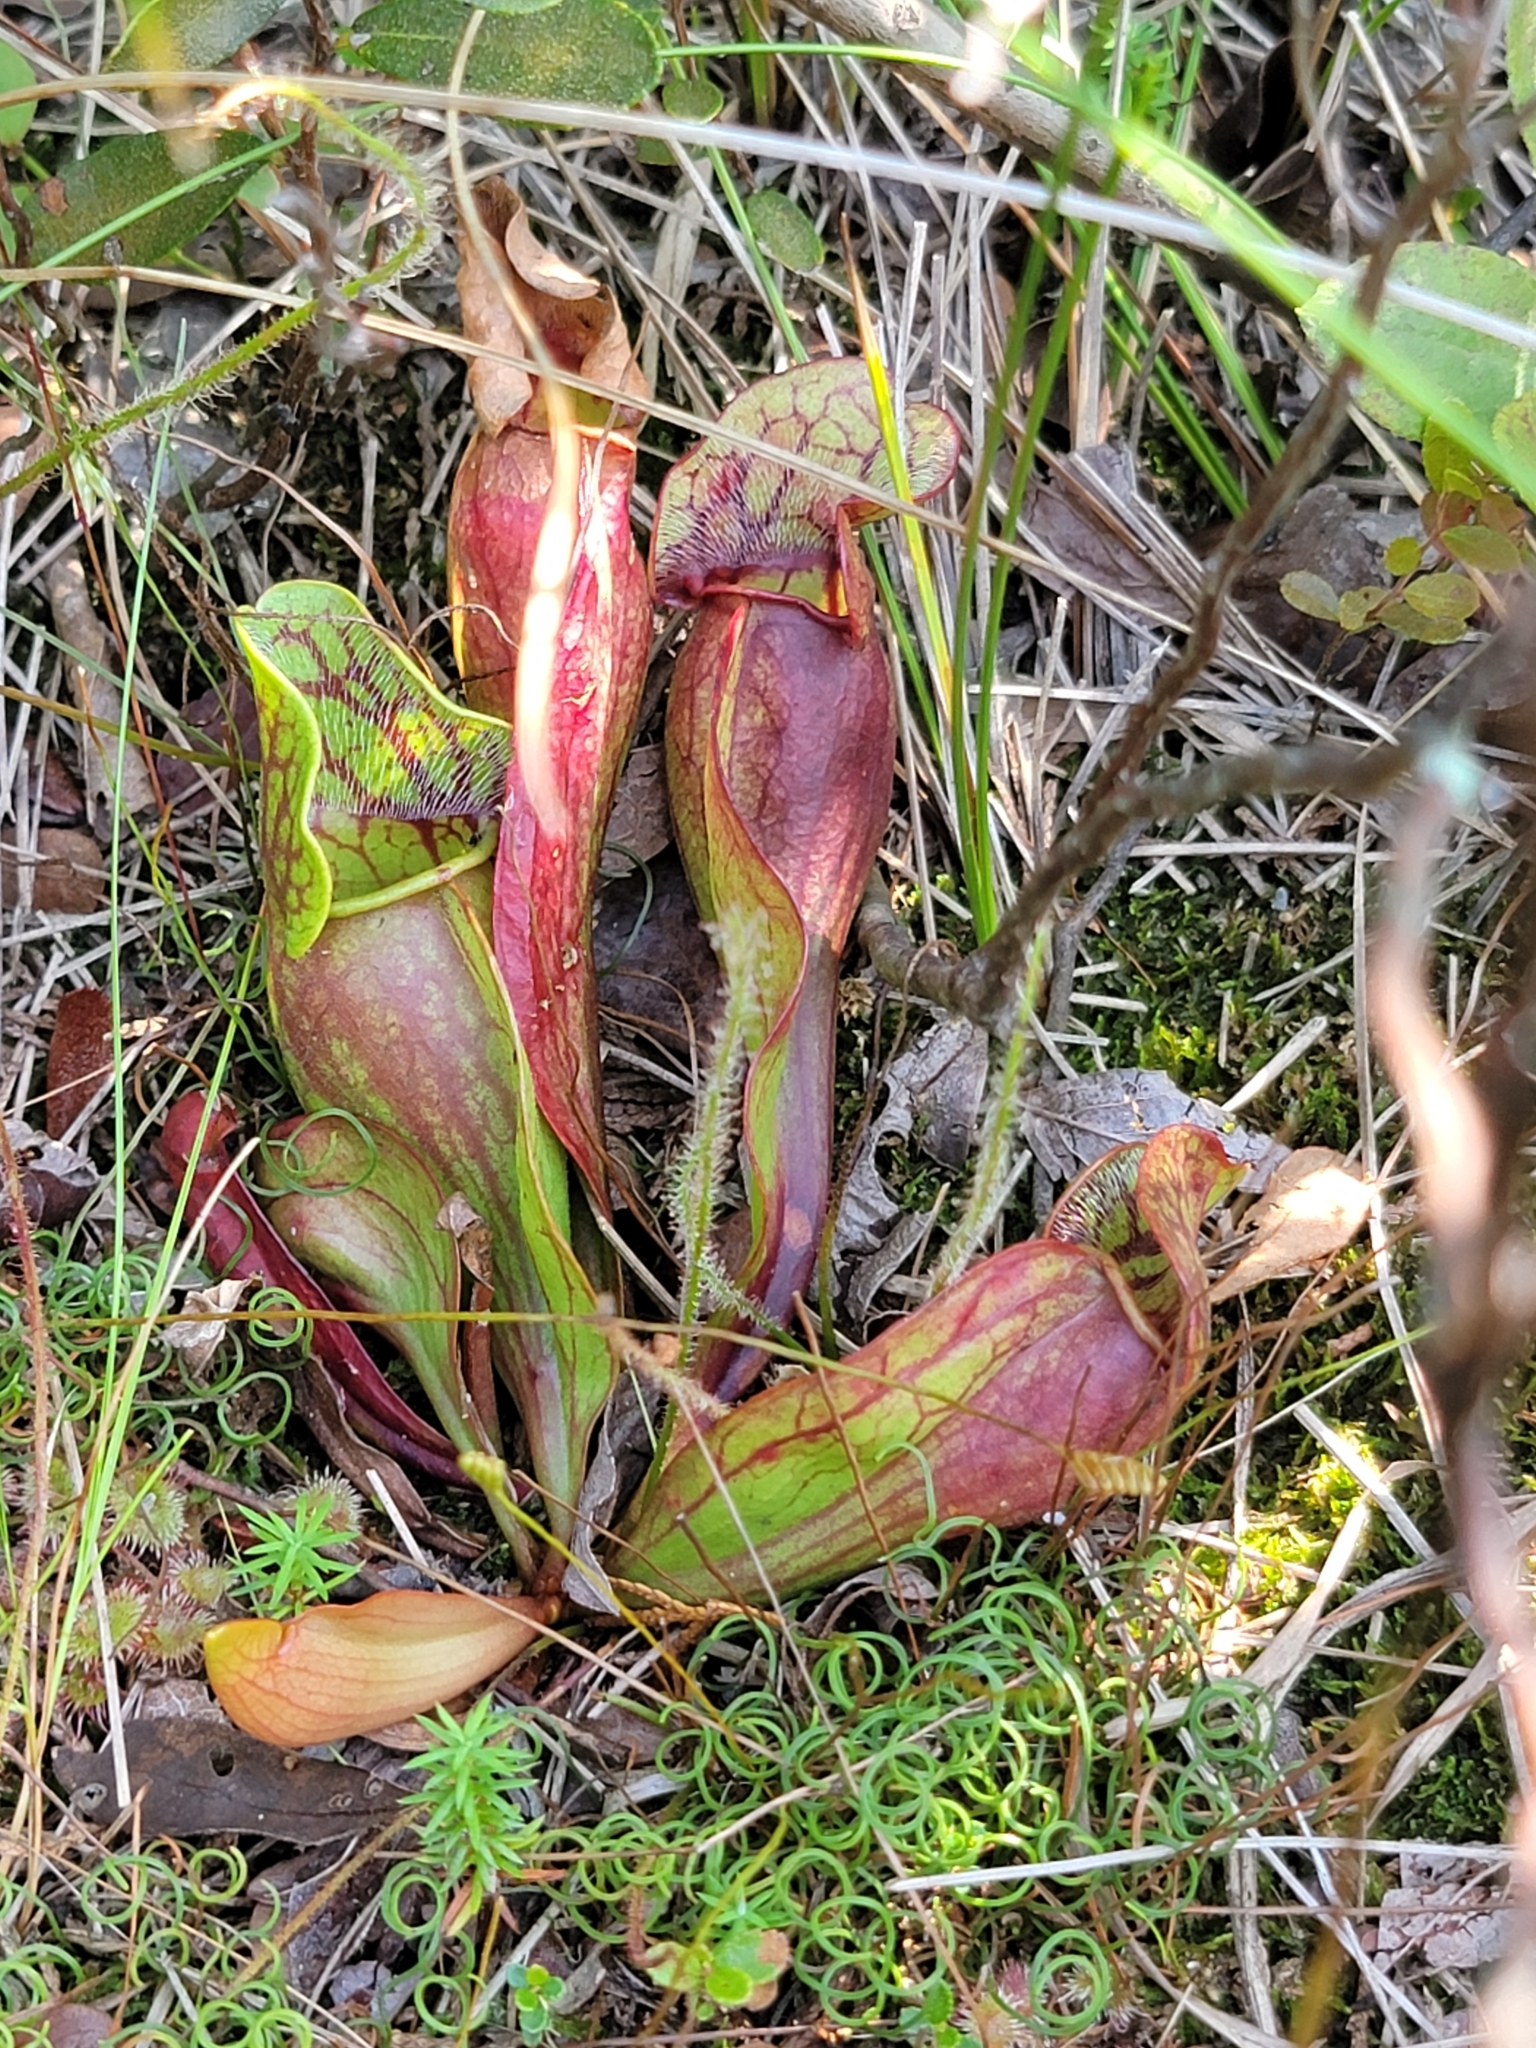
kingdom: Plantae
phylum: Tracheophyta
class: Magnoliopsida
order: Ericales
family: Sarraceniaceae
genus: Sarracenia
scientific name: Sarracenia purpurea
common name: Pitcherplant
